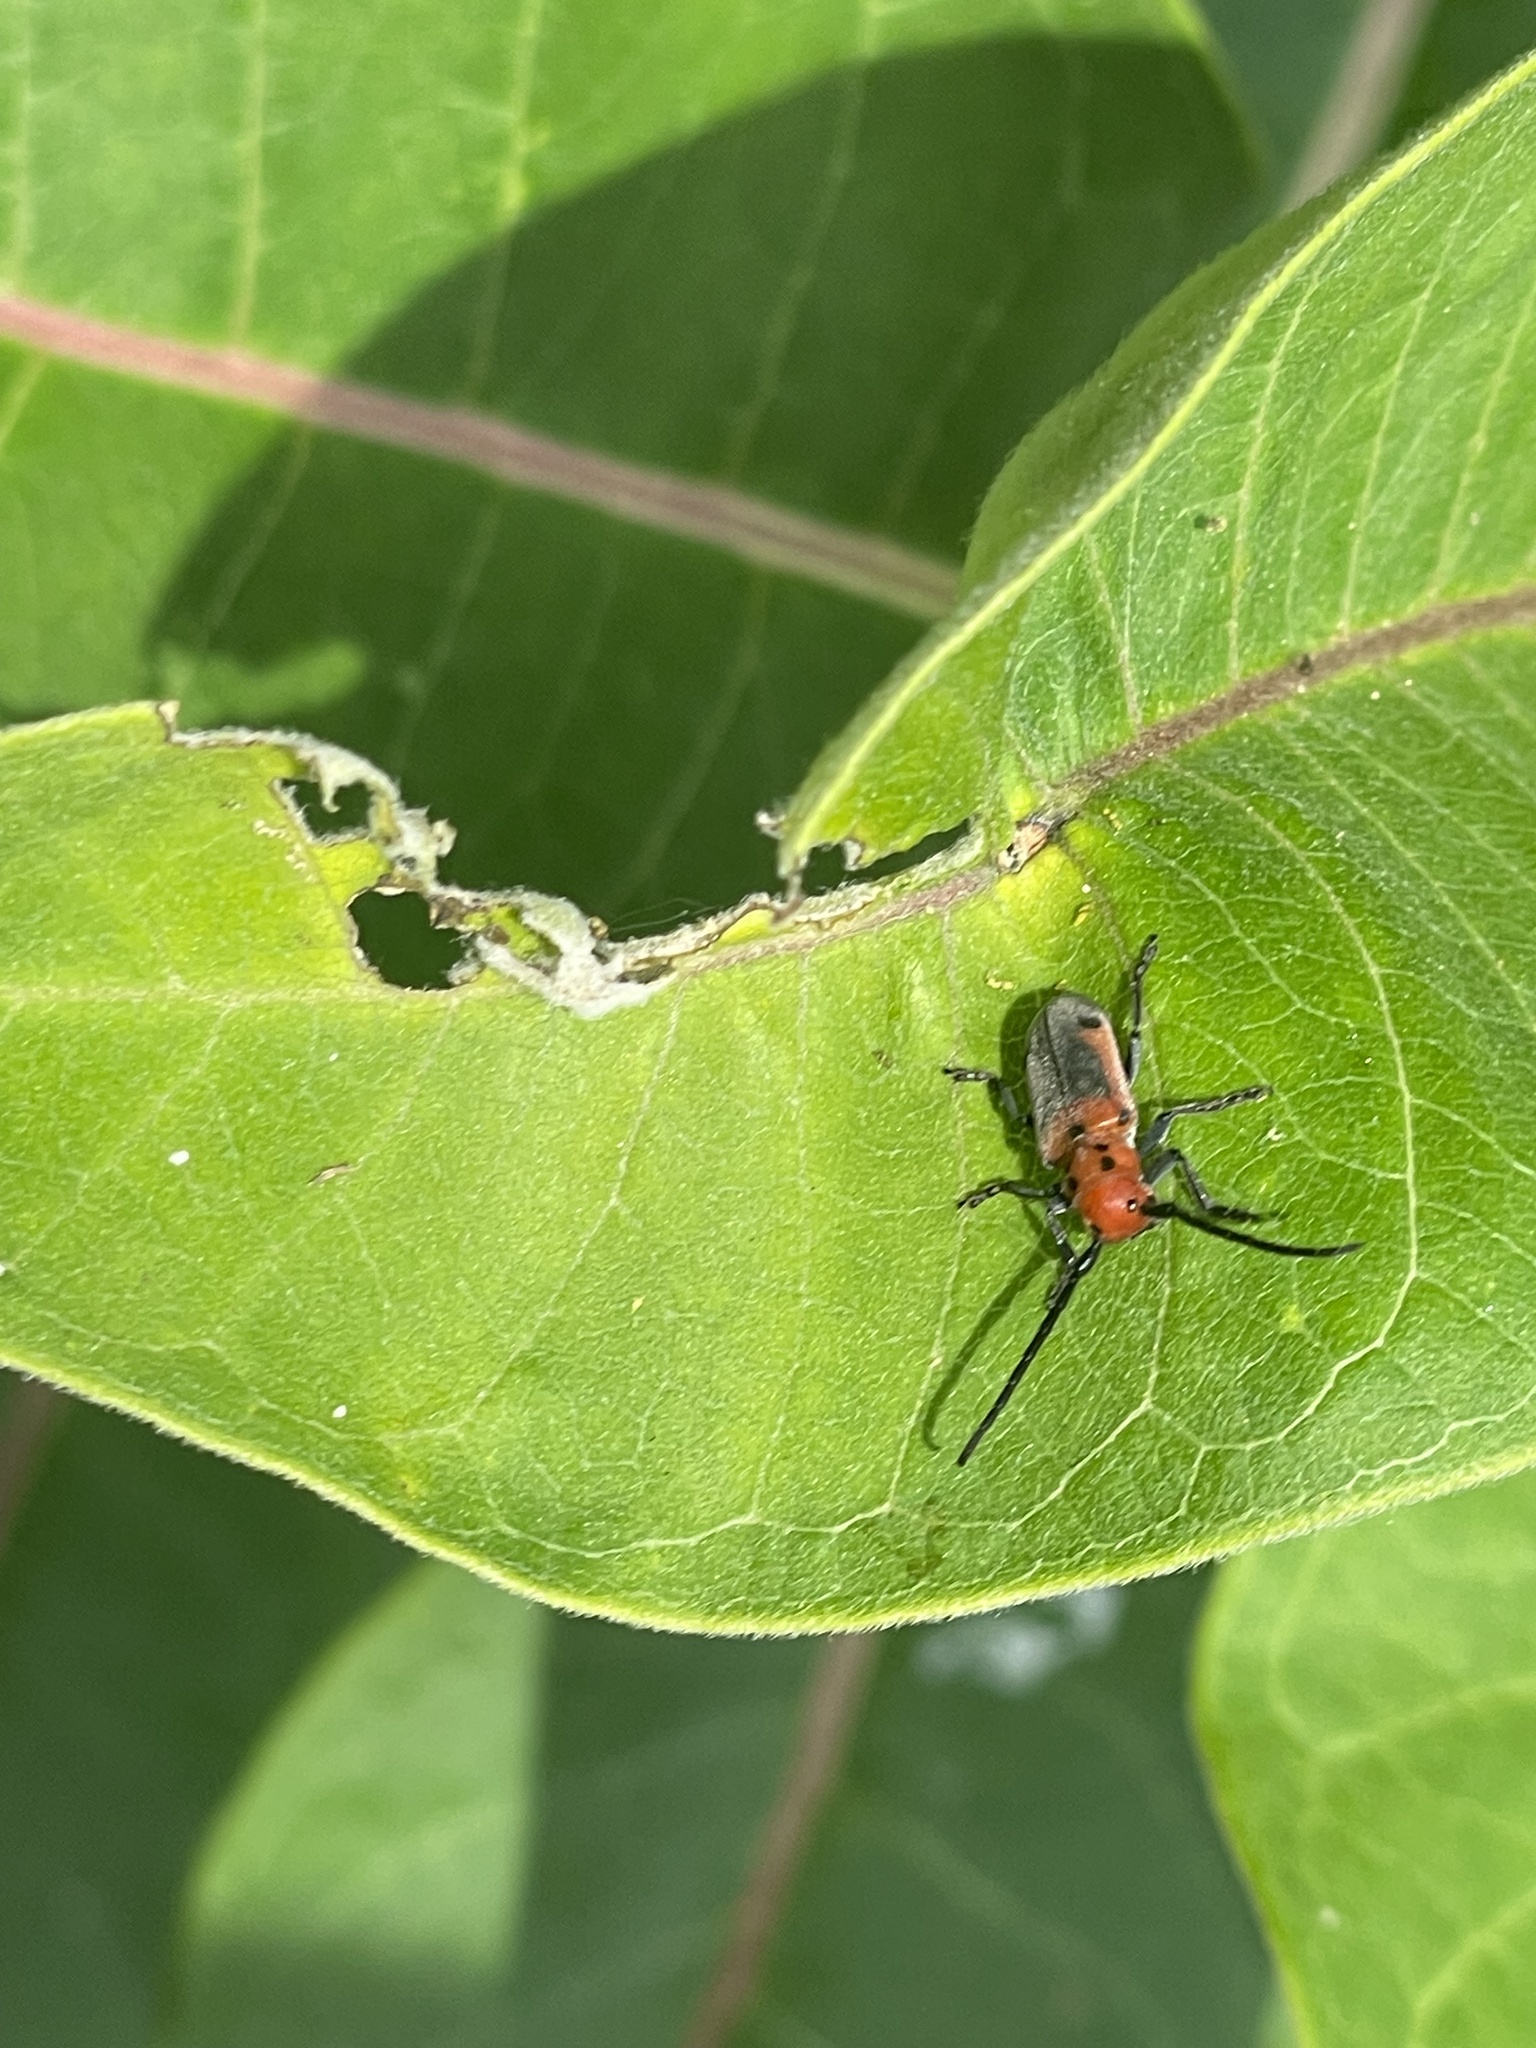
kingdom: Animalia
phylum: Arthropoda
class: Insecta
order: Coleoptera
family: Cerambycidae
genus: Tetraopes
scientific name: Tetraopes melanurus
